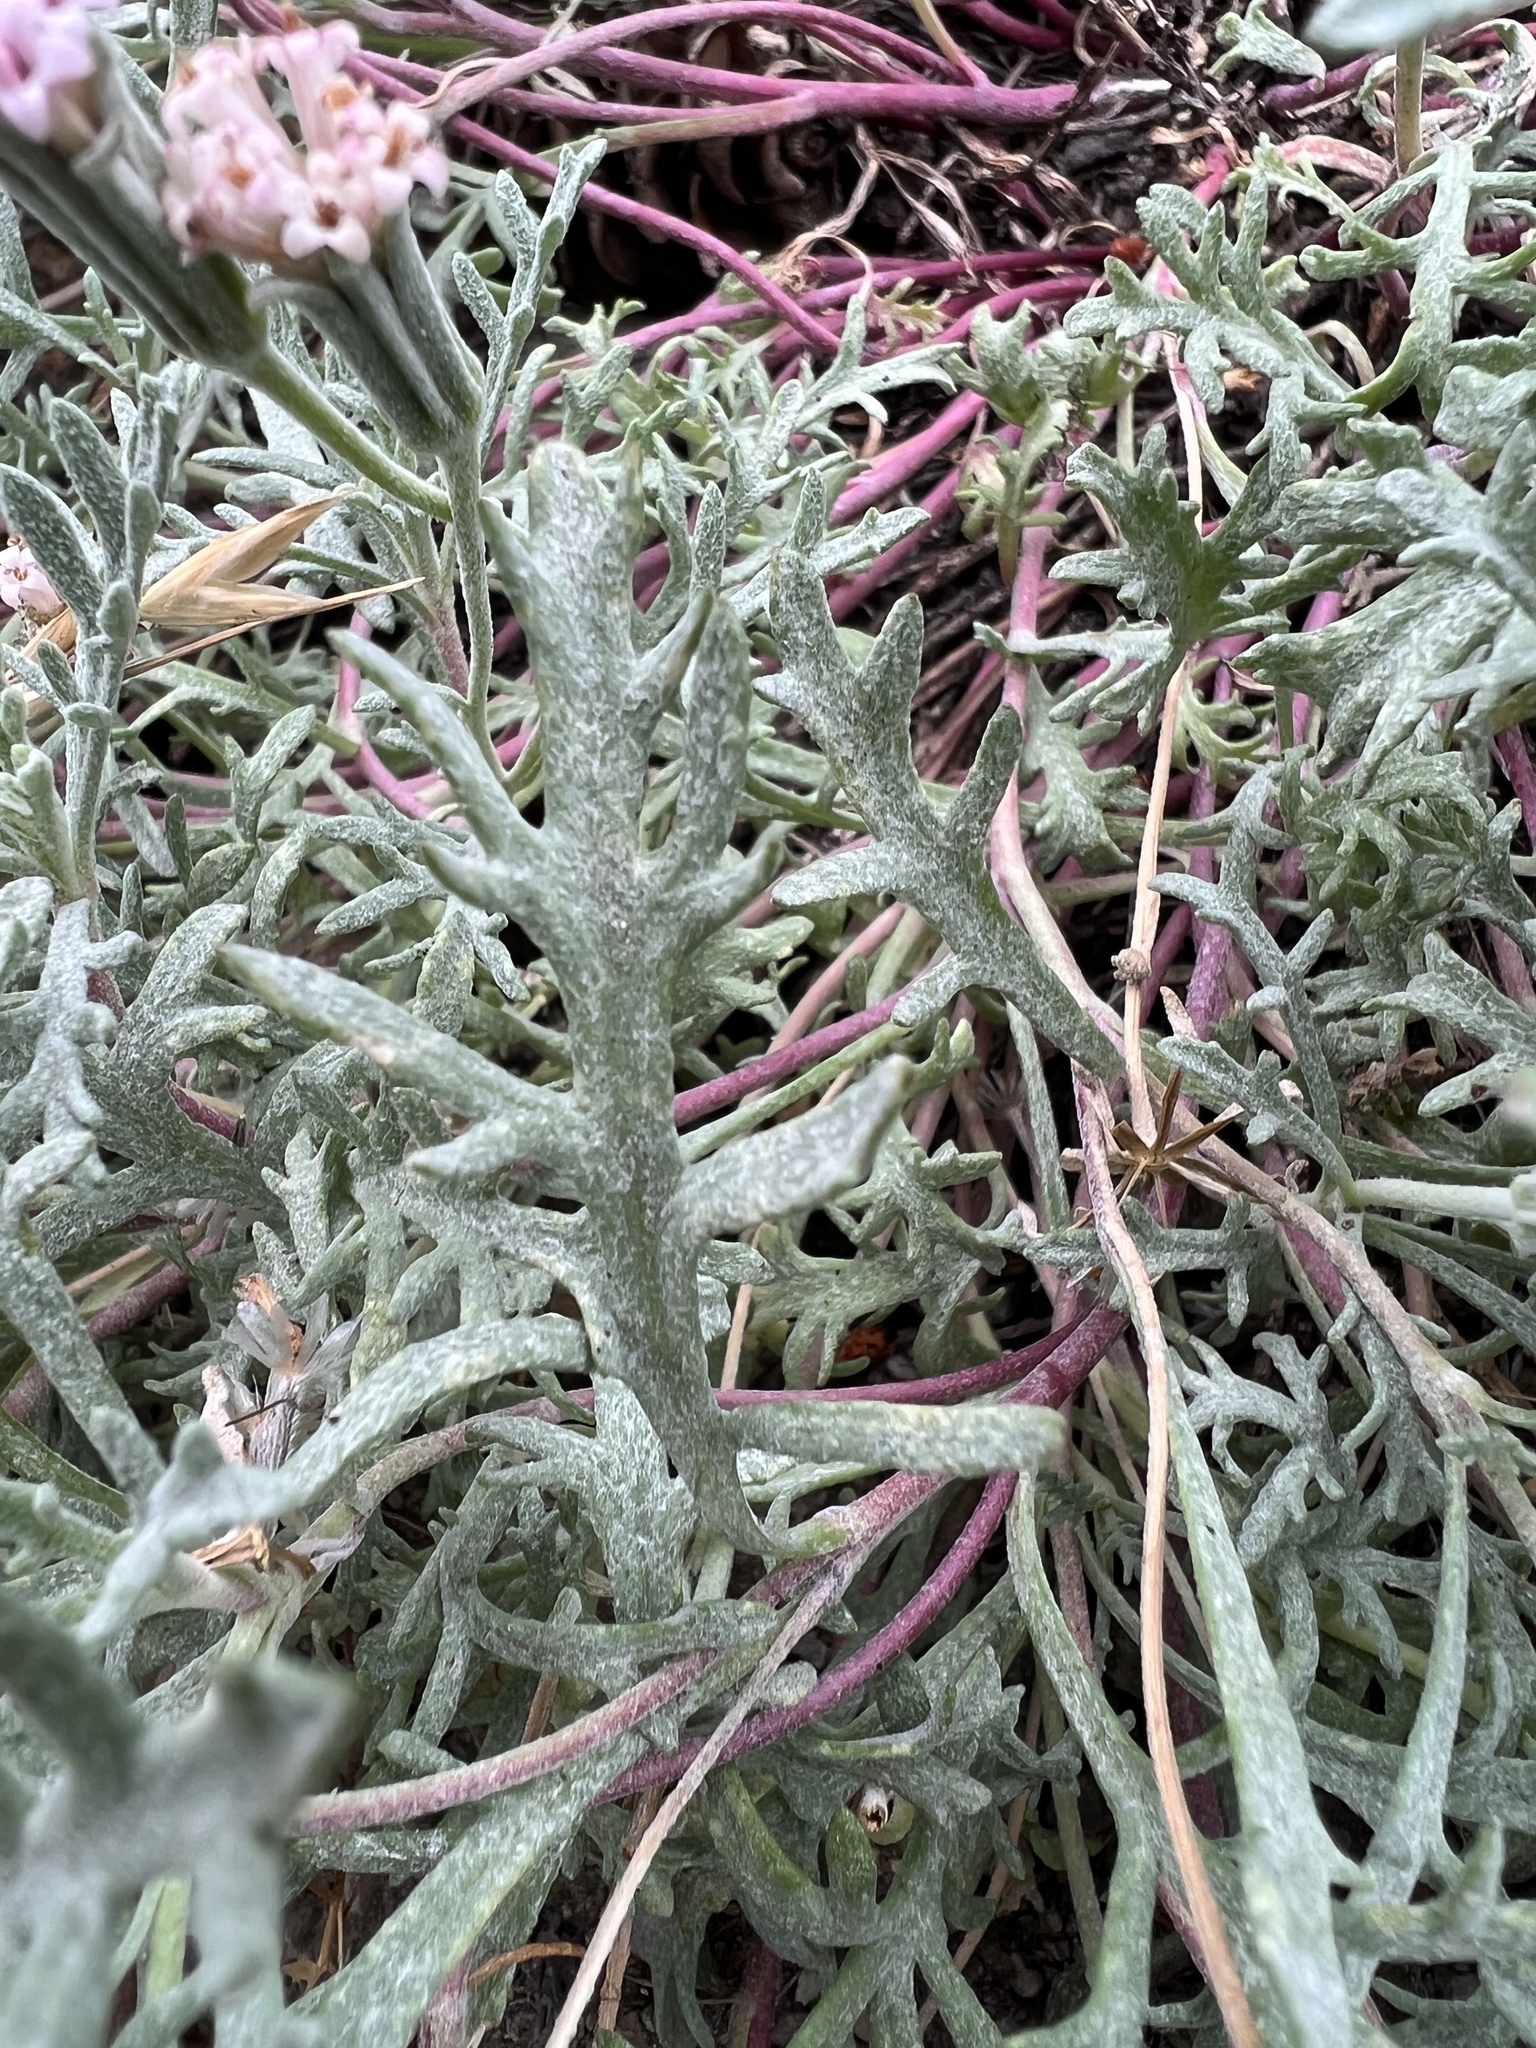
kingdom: Plantae
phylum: Tracheophyta
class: Magnoliopsida
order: Asterales
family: Asteraceae
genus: Chaenactis
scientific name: Chaenactis thompsonii
